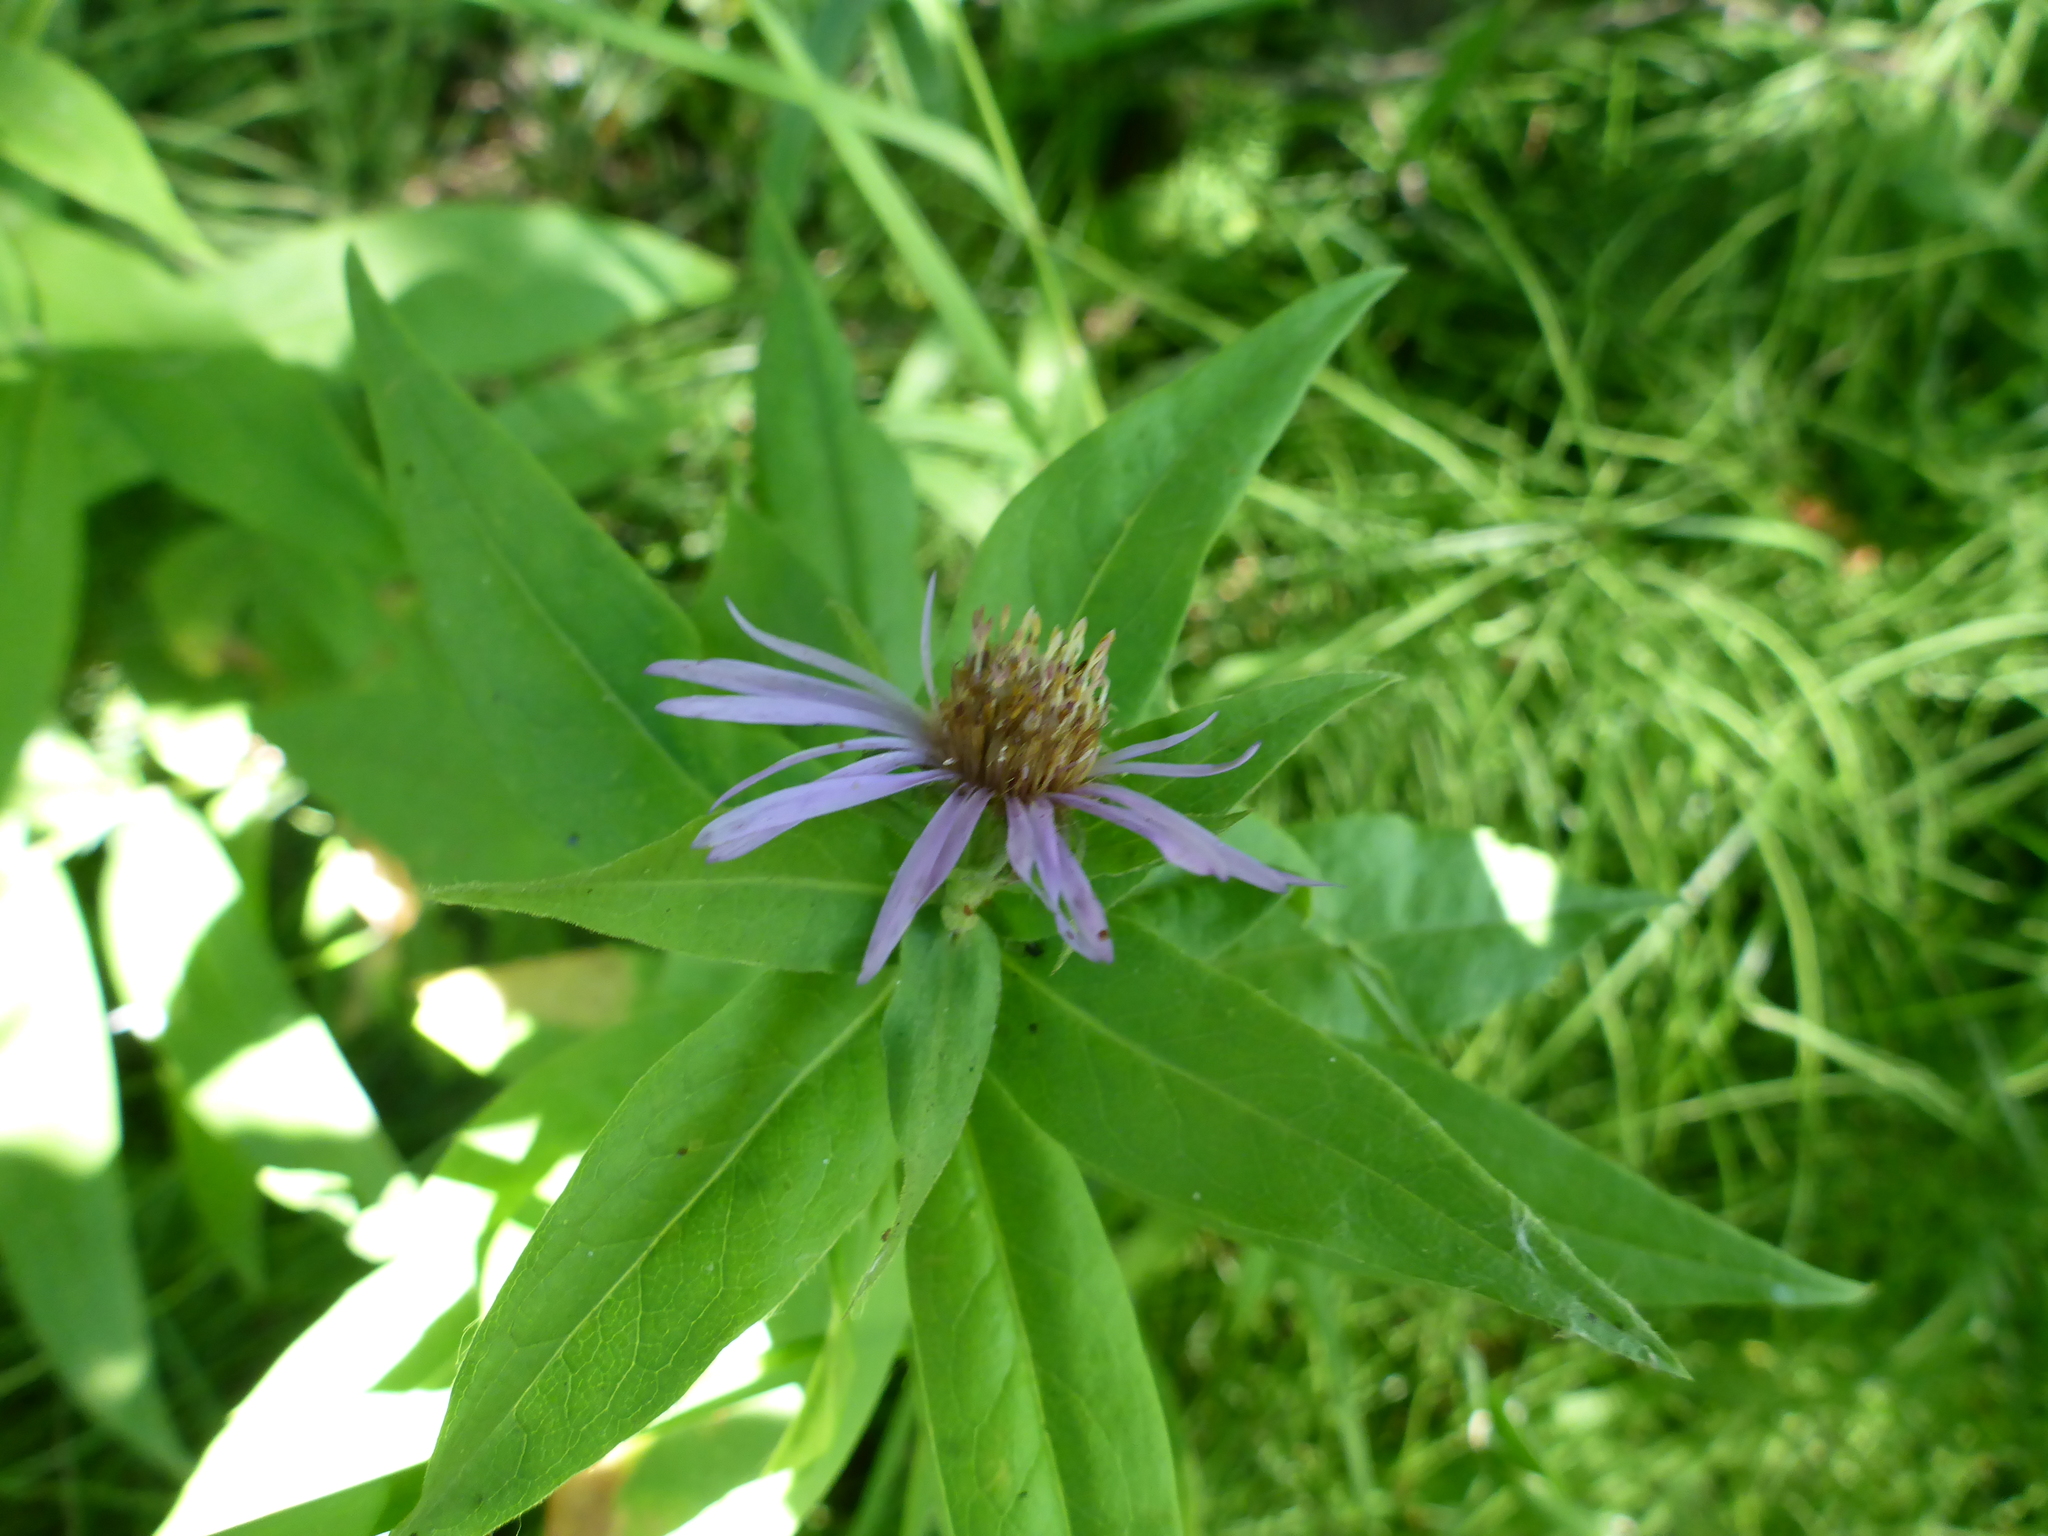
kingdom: Plantae
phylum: Tracheophyta
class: Magnoliopsida
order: Asterales
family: Asteraceae
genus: Eurybia
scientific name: Eurybia conspicua
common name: Showy aster
